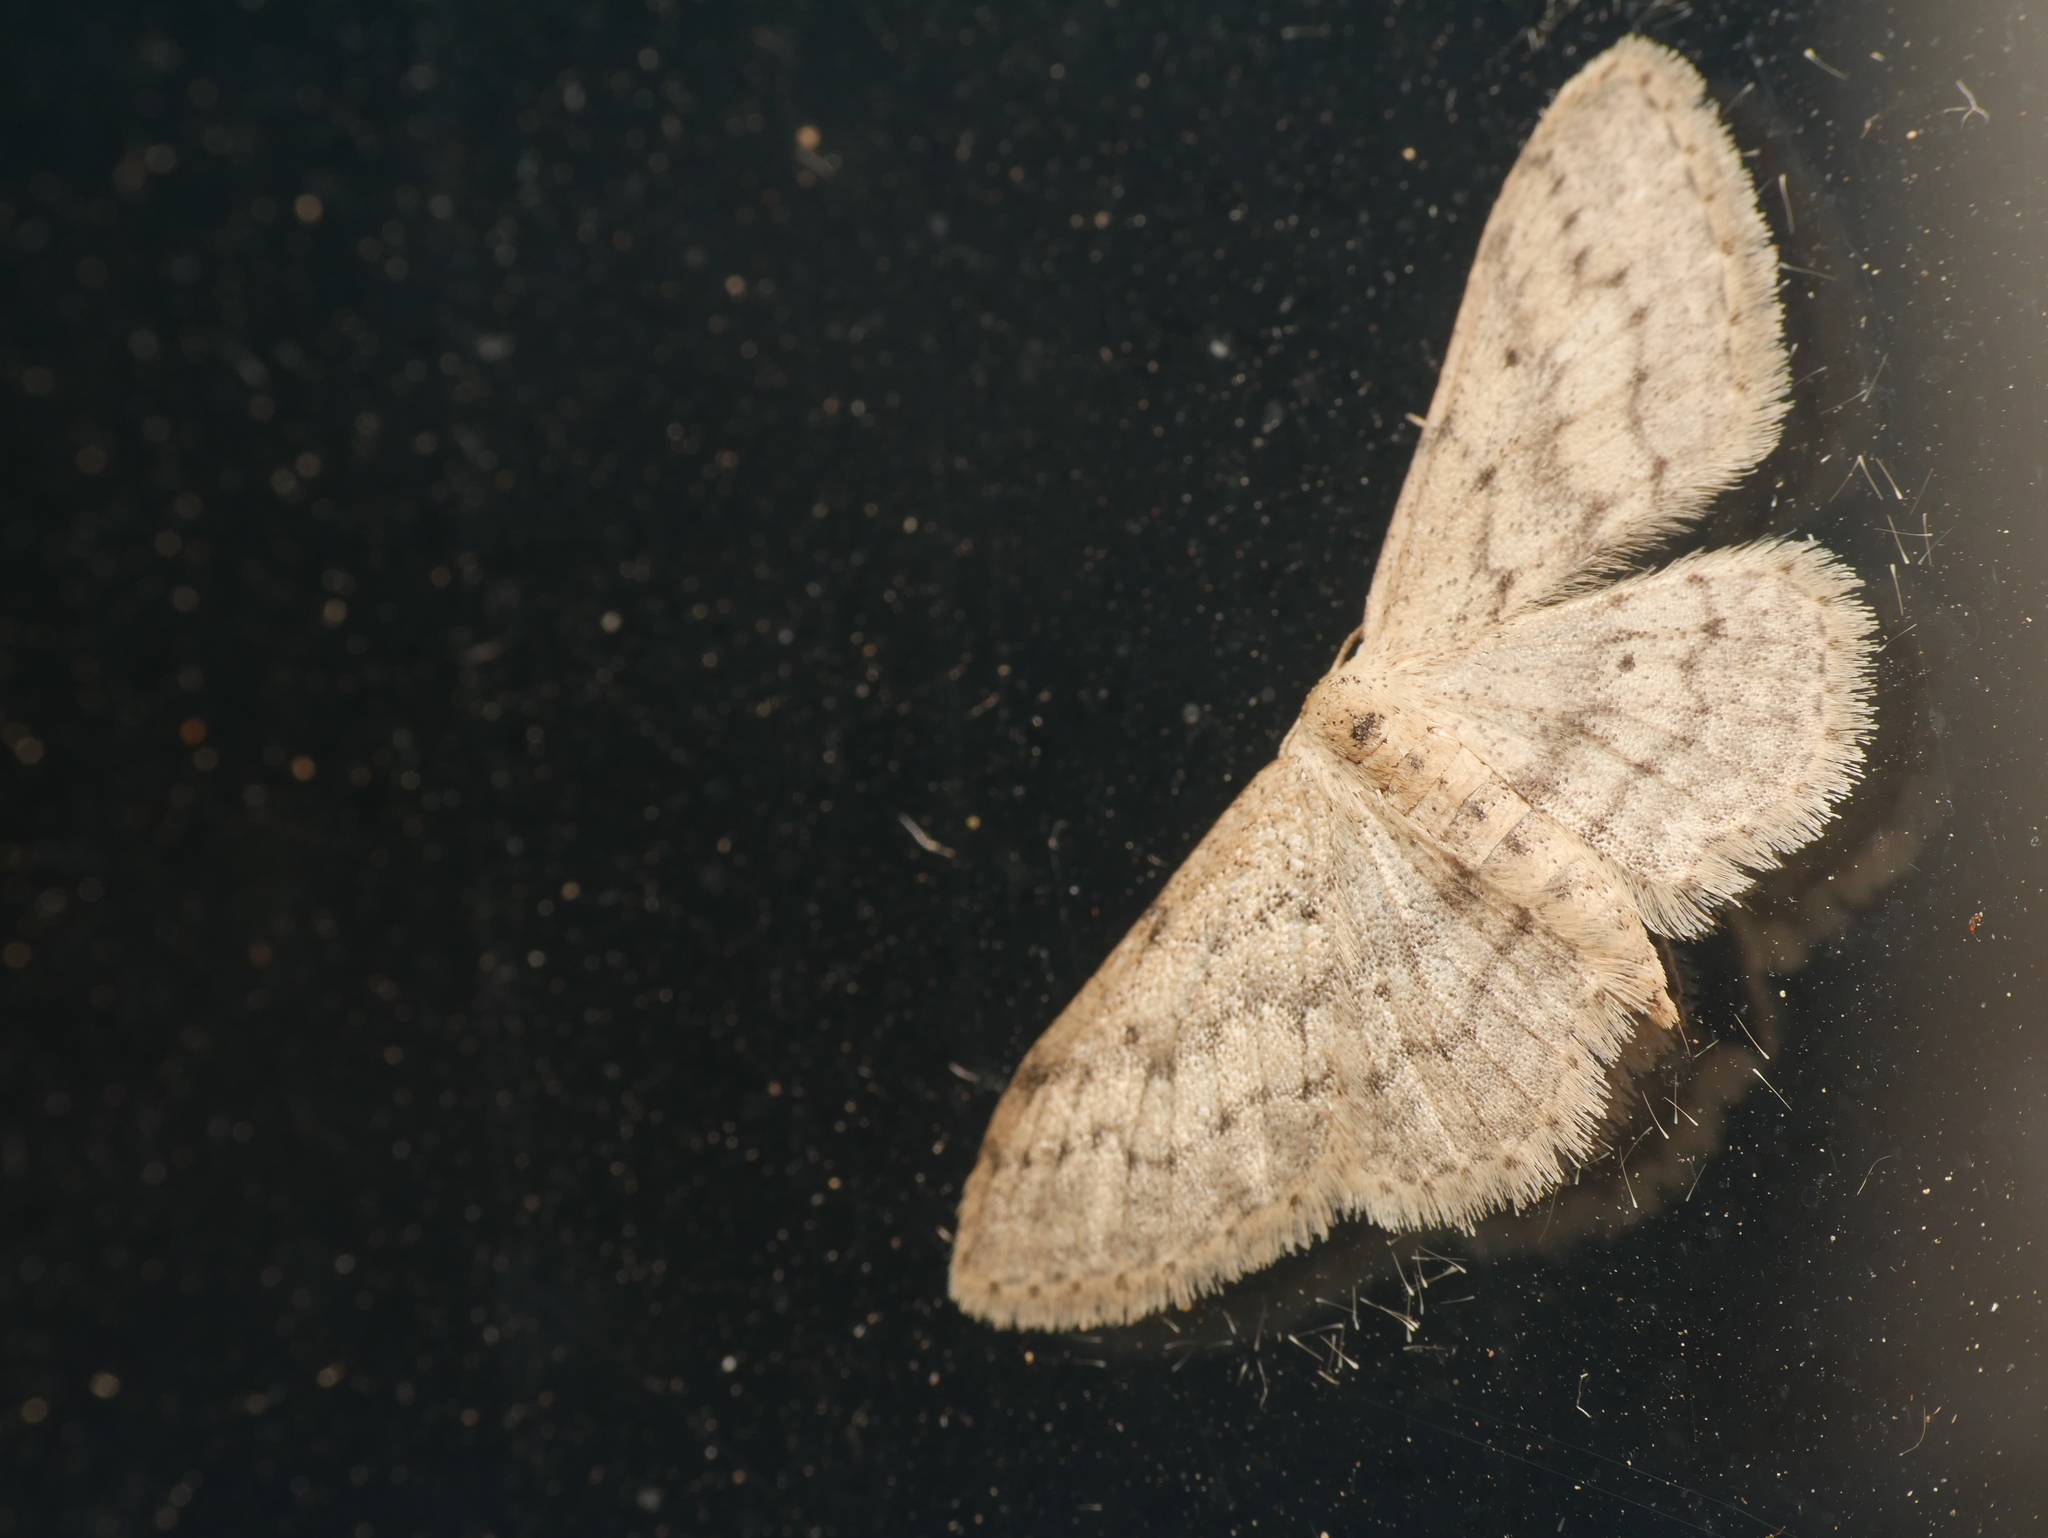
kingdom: Animalia
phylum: Arthropoda
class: Insecta
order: Lepidoptera
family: Geometridae
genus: Idaea
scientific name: Idaea seriata
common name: Small dusty wave
